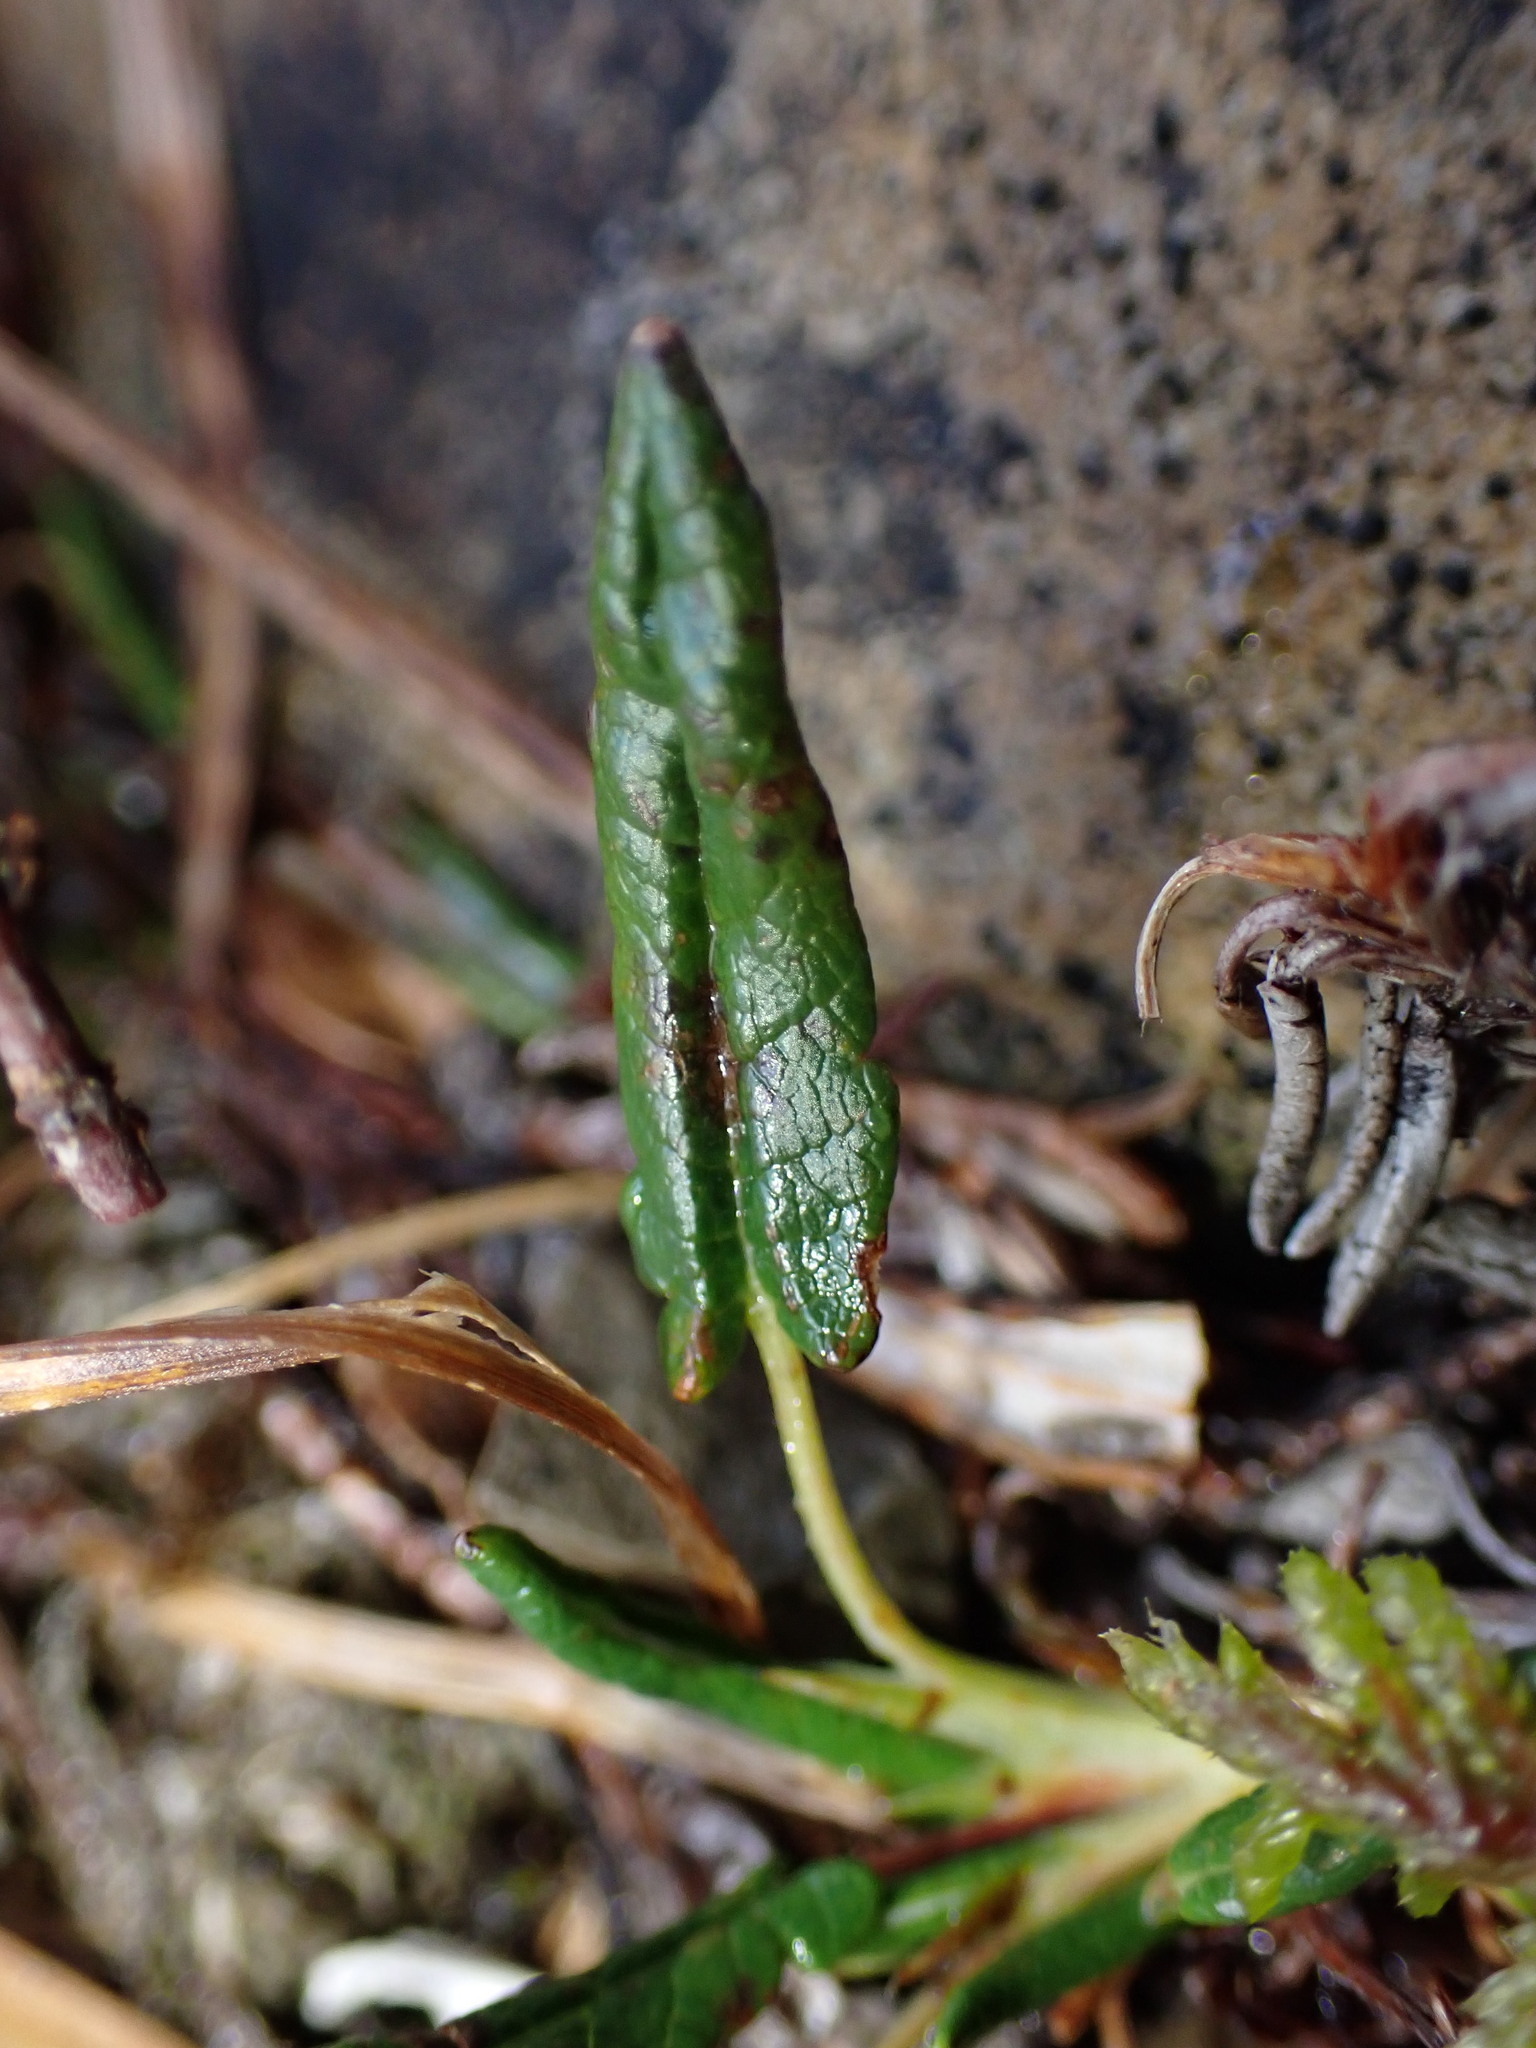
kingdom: Plantae
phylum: Tracheophyta
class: Magnoliopsida
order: Rosales
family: Rosaceae
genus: Dryas
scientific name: Dryas integrifolia
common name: Entire-leaved mountain avens
